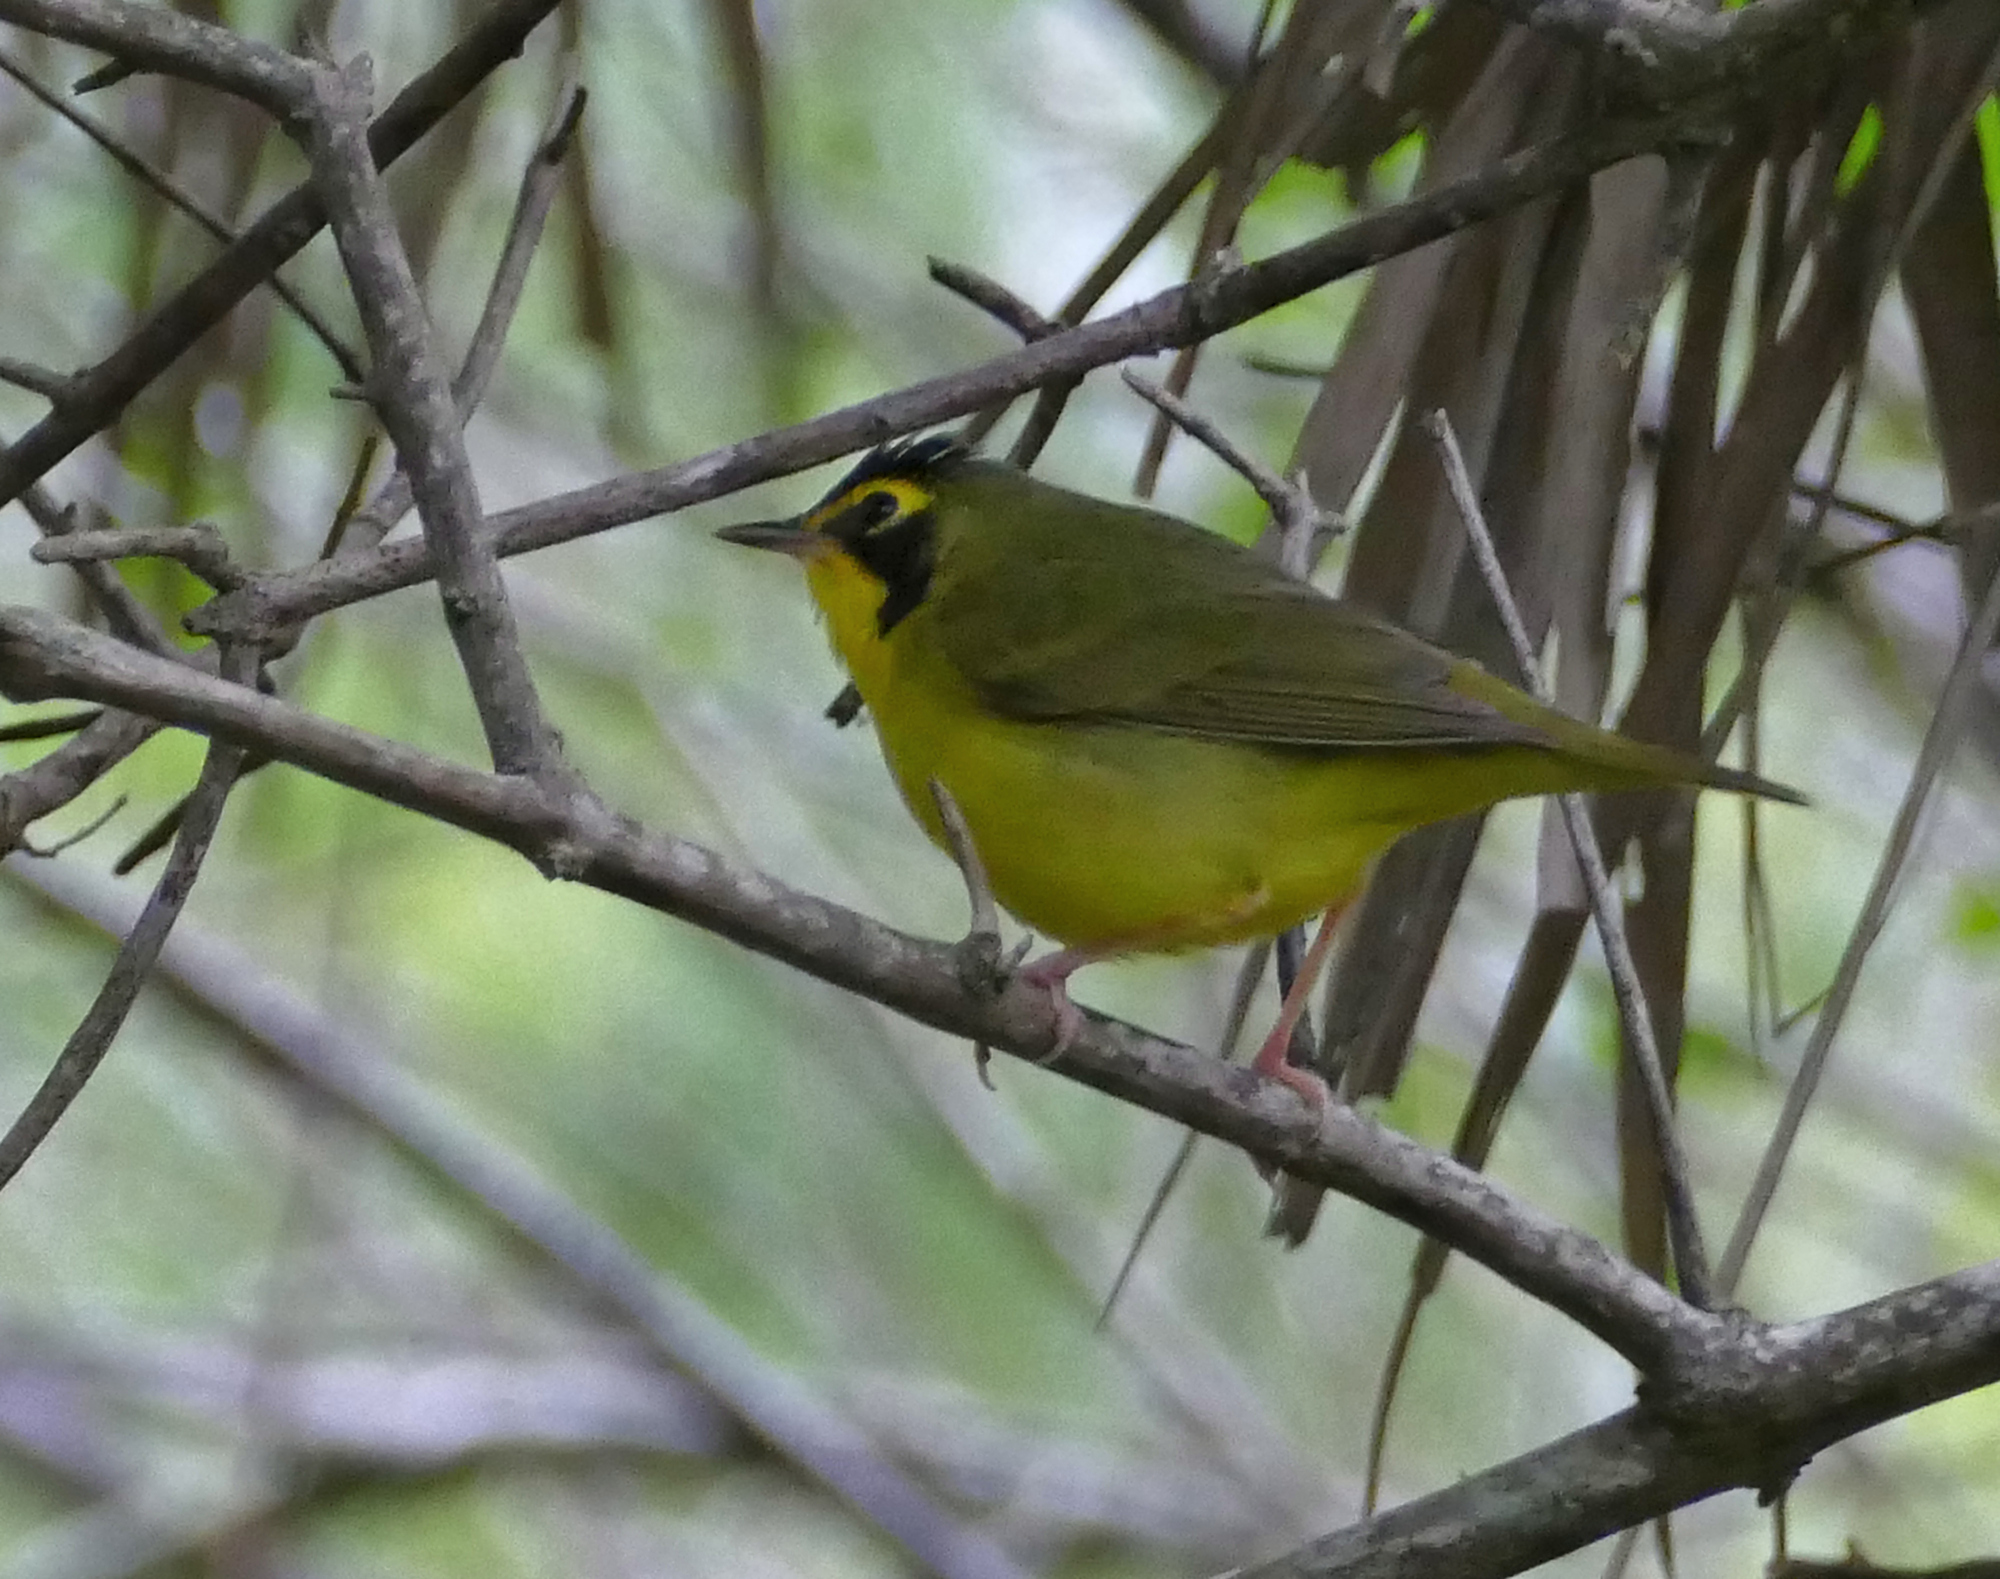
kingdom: Animalia
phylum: Chordata
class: Aves
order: Passeriformes
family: Parulidae
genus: Geothlypis
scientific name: Geothlypis formosa
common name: Kentucky warbler
